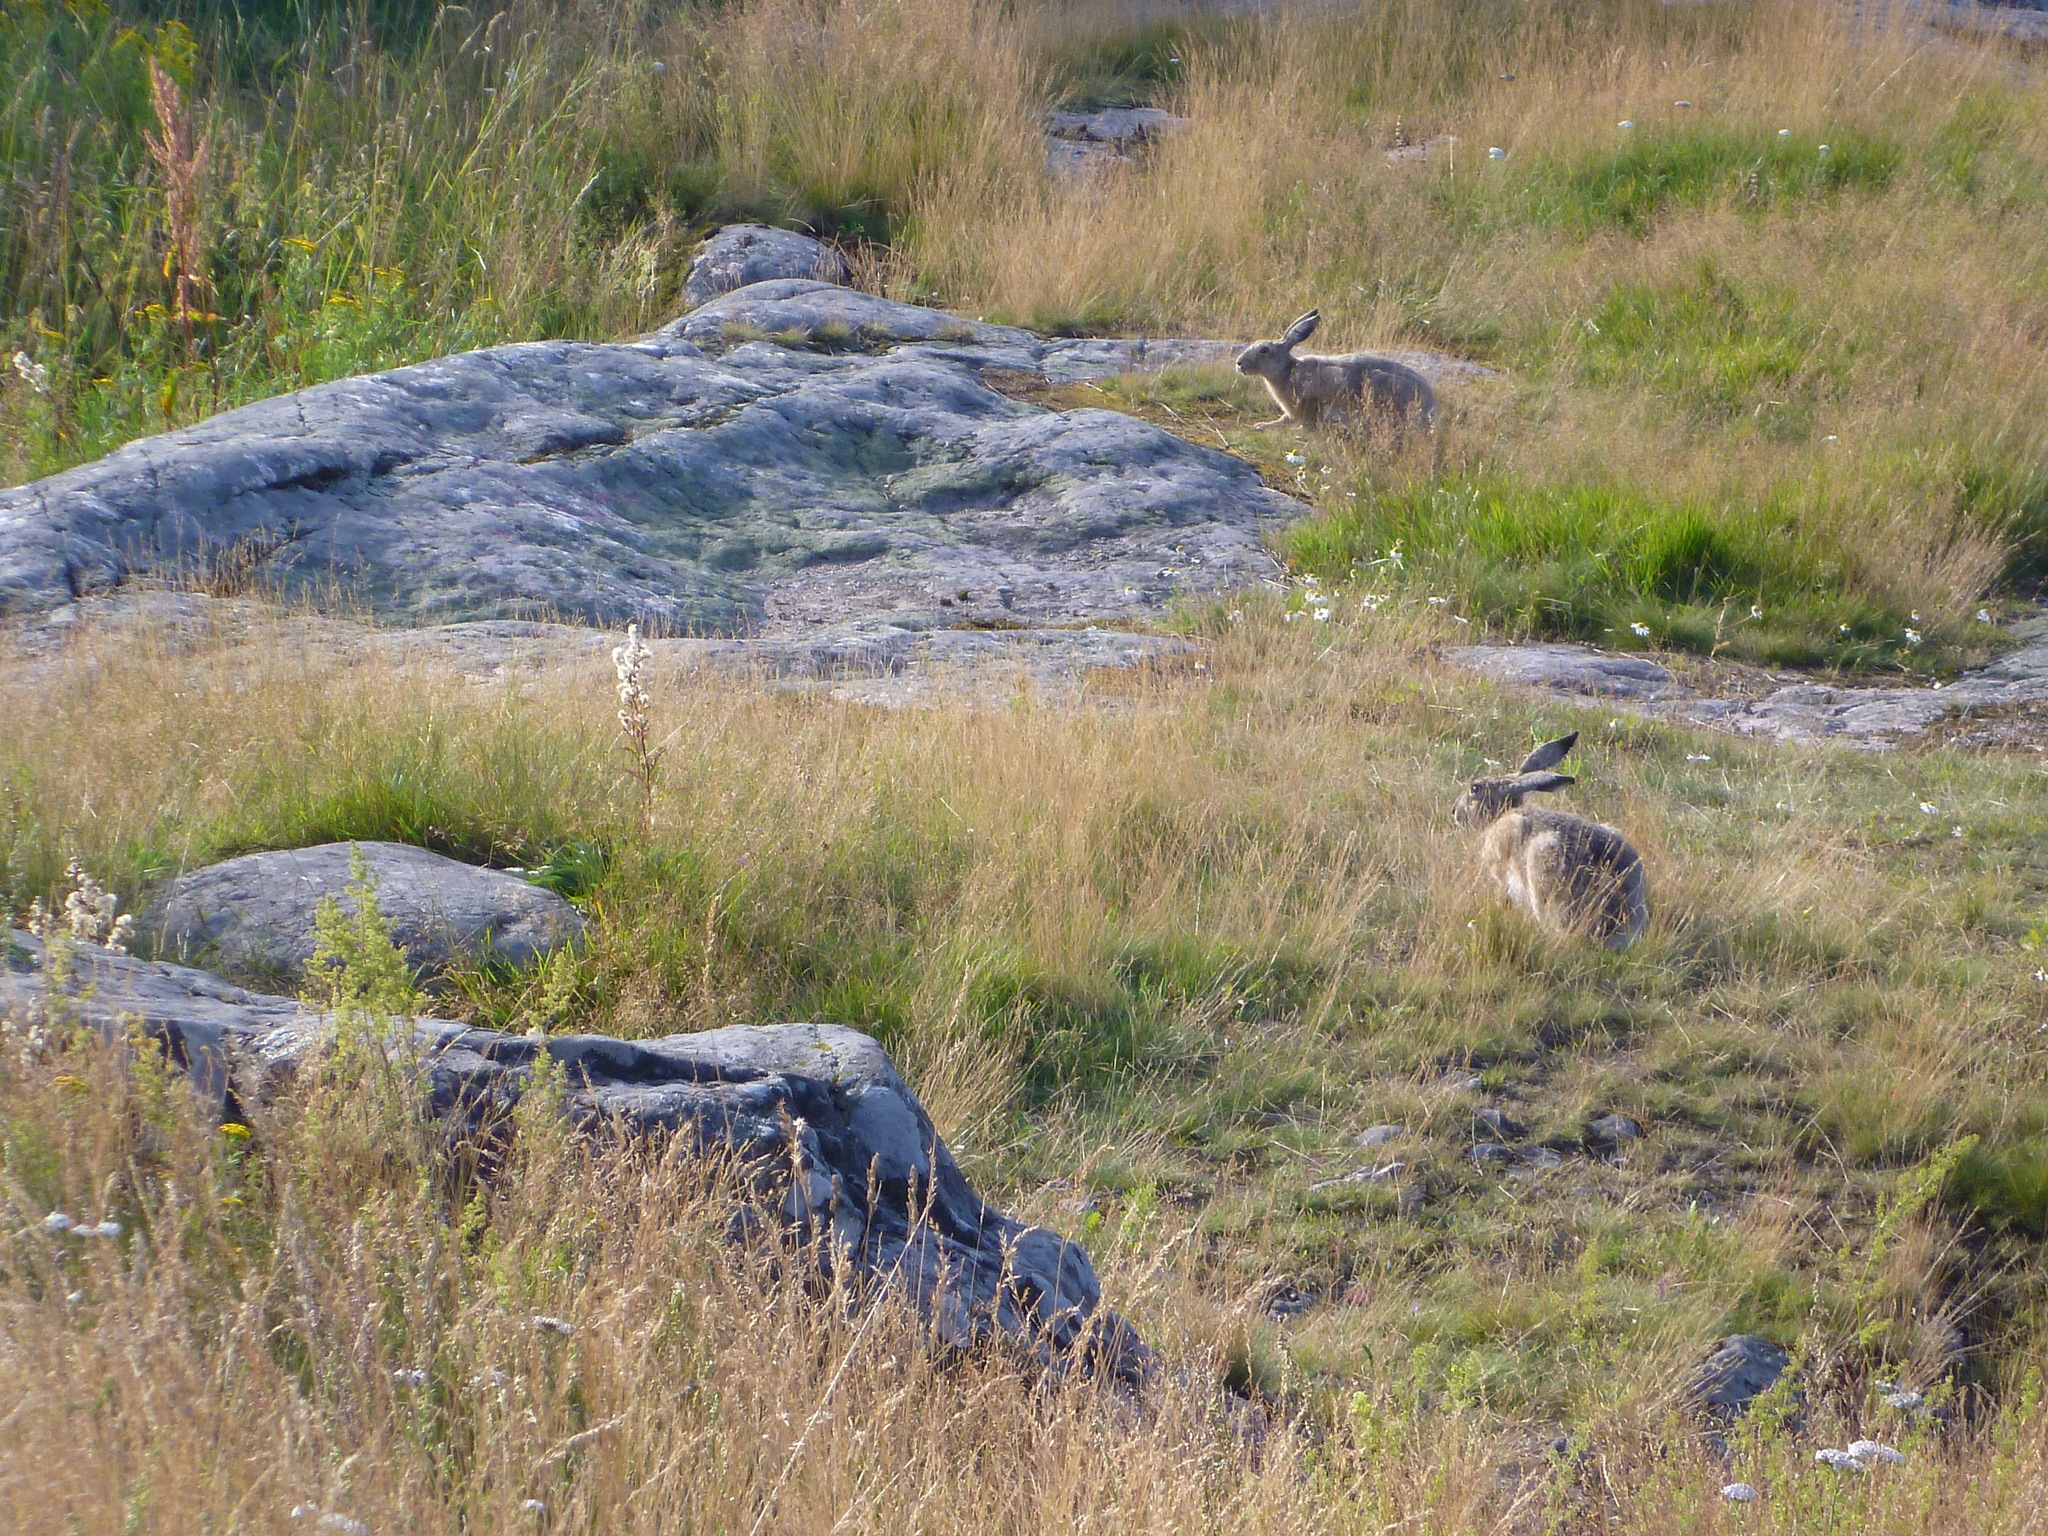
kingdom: Animalia
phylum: Chordata
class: Mammalia
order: Lagomorpha
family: Leporidae
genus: Lepus
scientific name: Lepus europaeus
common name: European hare
